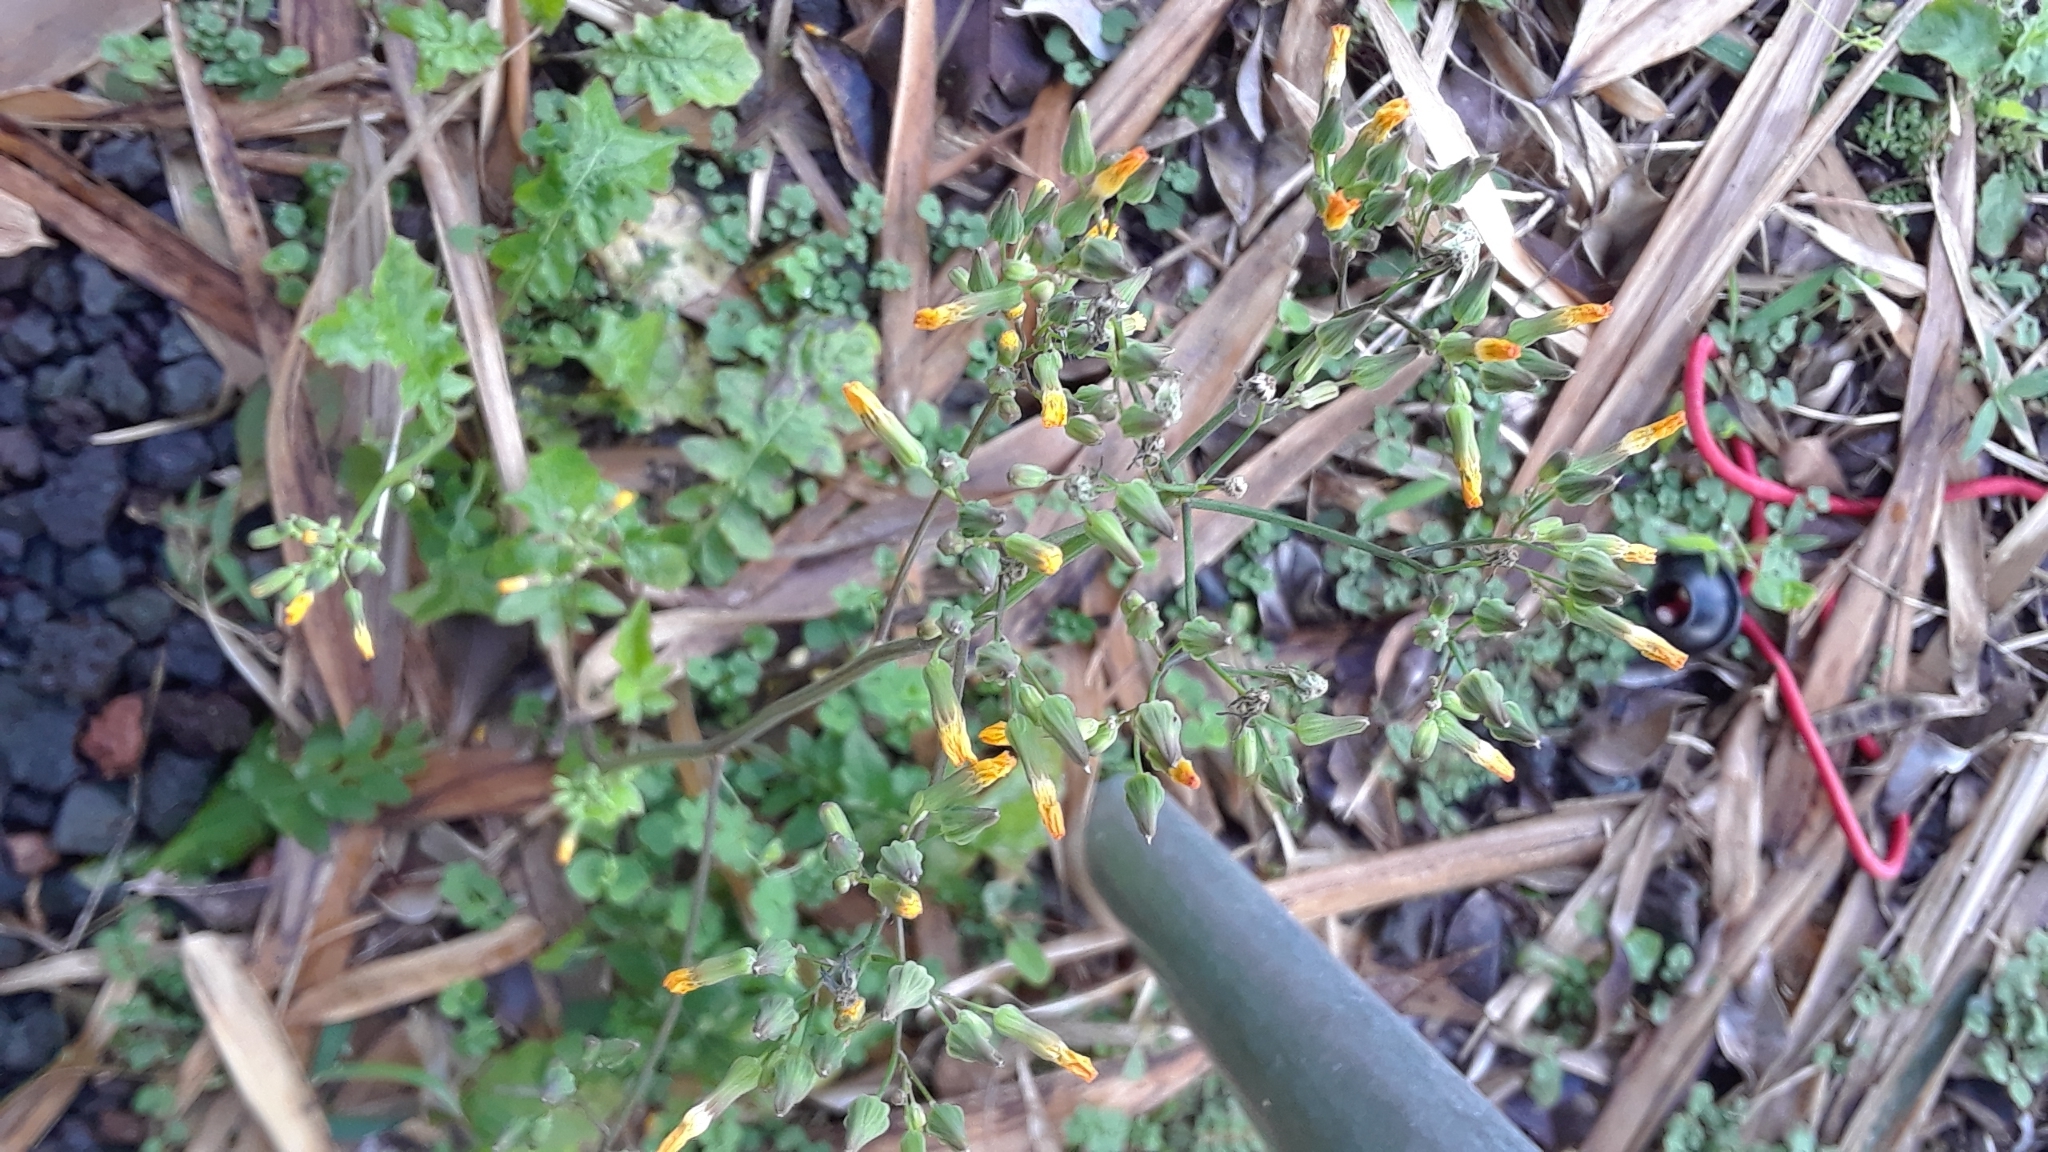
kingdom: Plantae
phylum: Tracheophyta
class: Magnoliopsida
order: Asterales
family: Asteraceae
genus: Youngia
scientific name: Youngia japonica
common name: Oriental false hawksbeard
